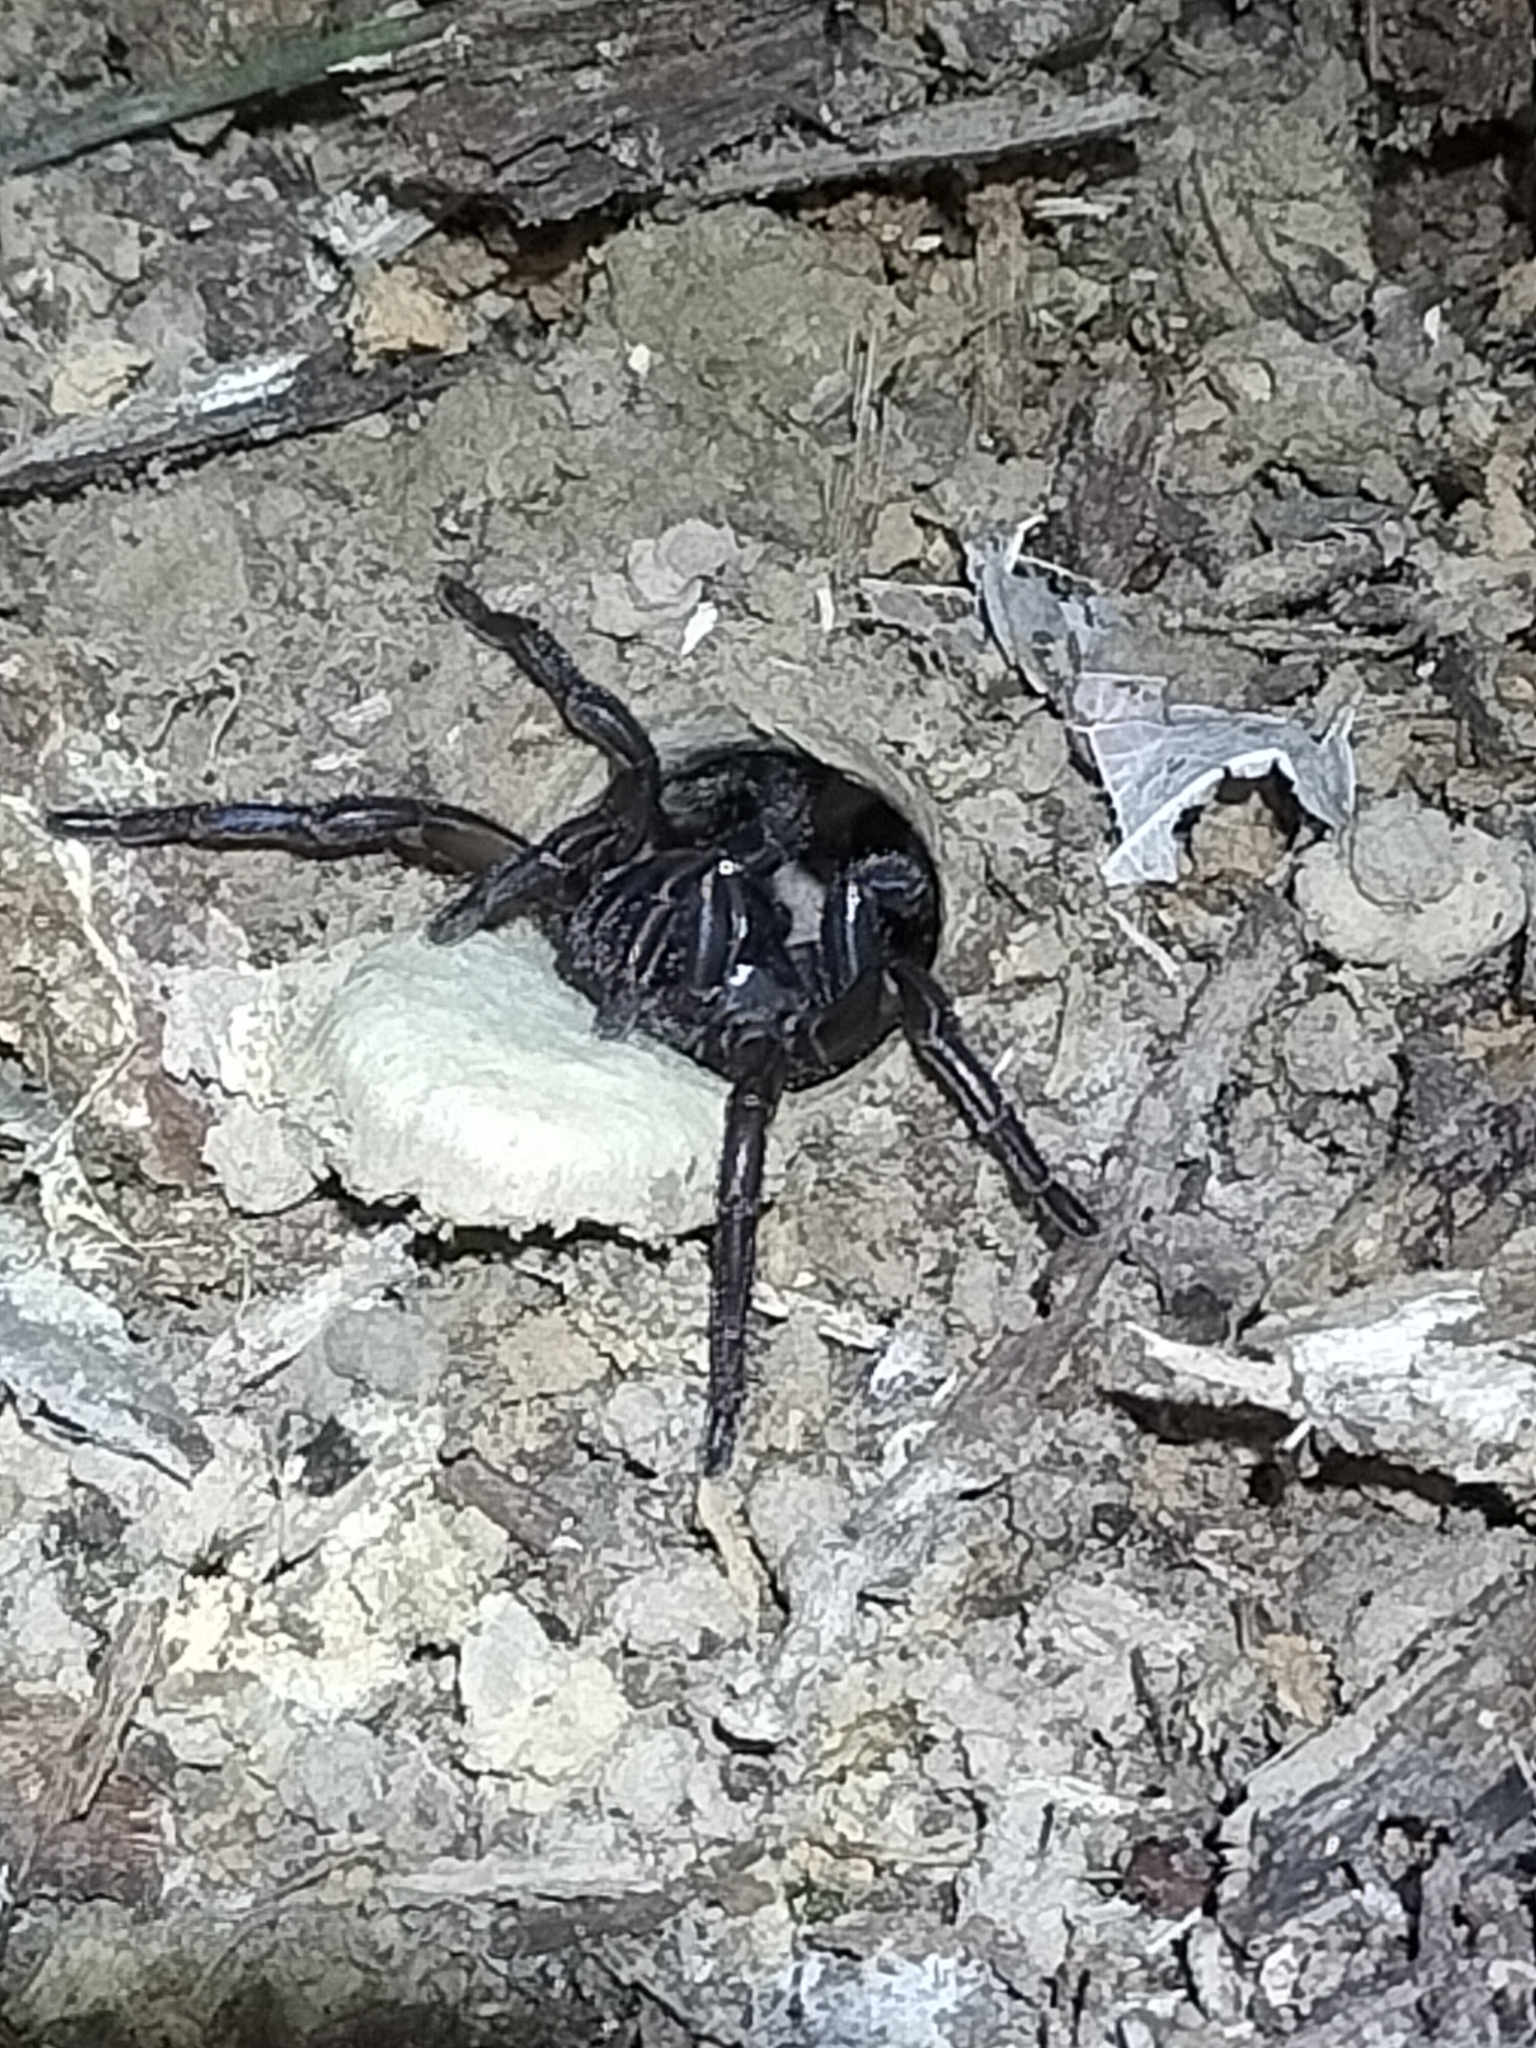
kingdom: Animalia
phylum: Arthropoda
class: Arachnida
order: Araneae
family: Barychelidae
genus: Trittame
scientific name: Trittame loki
